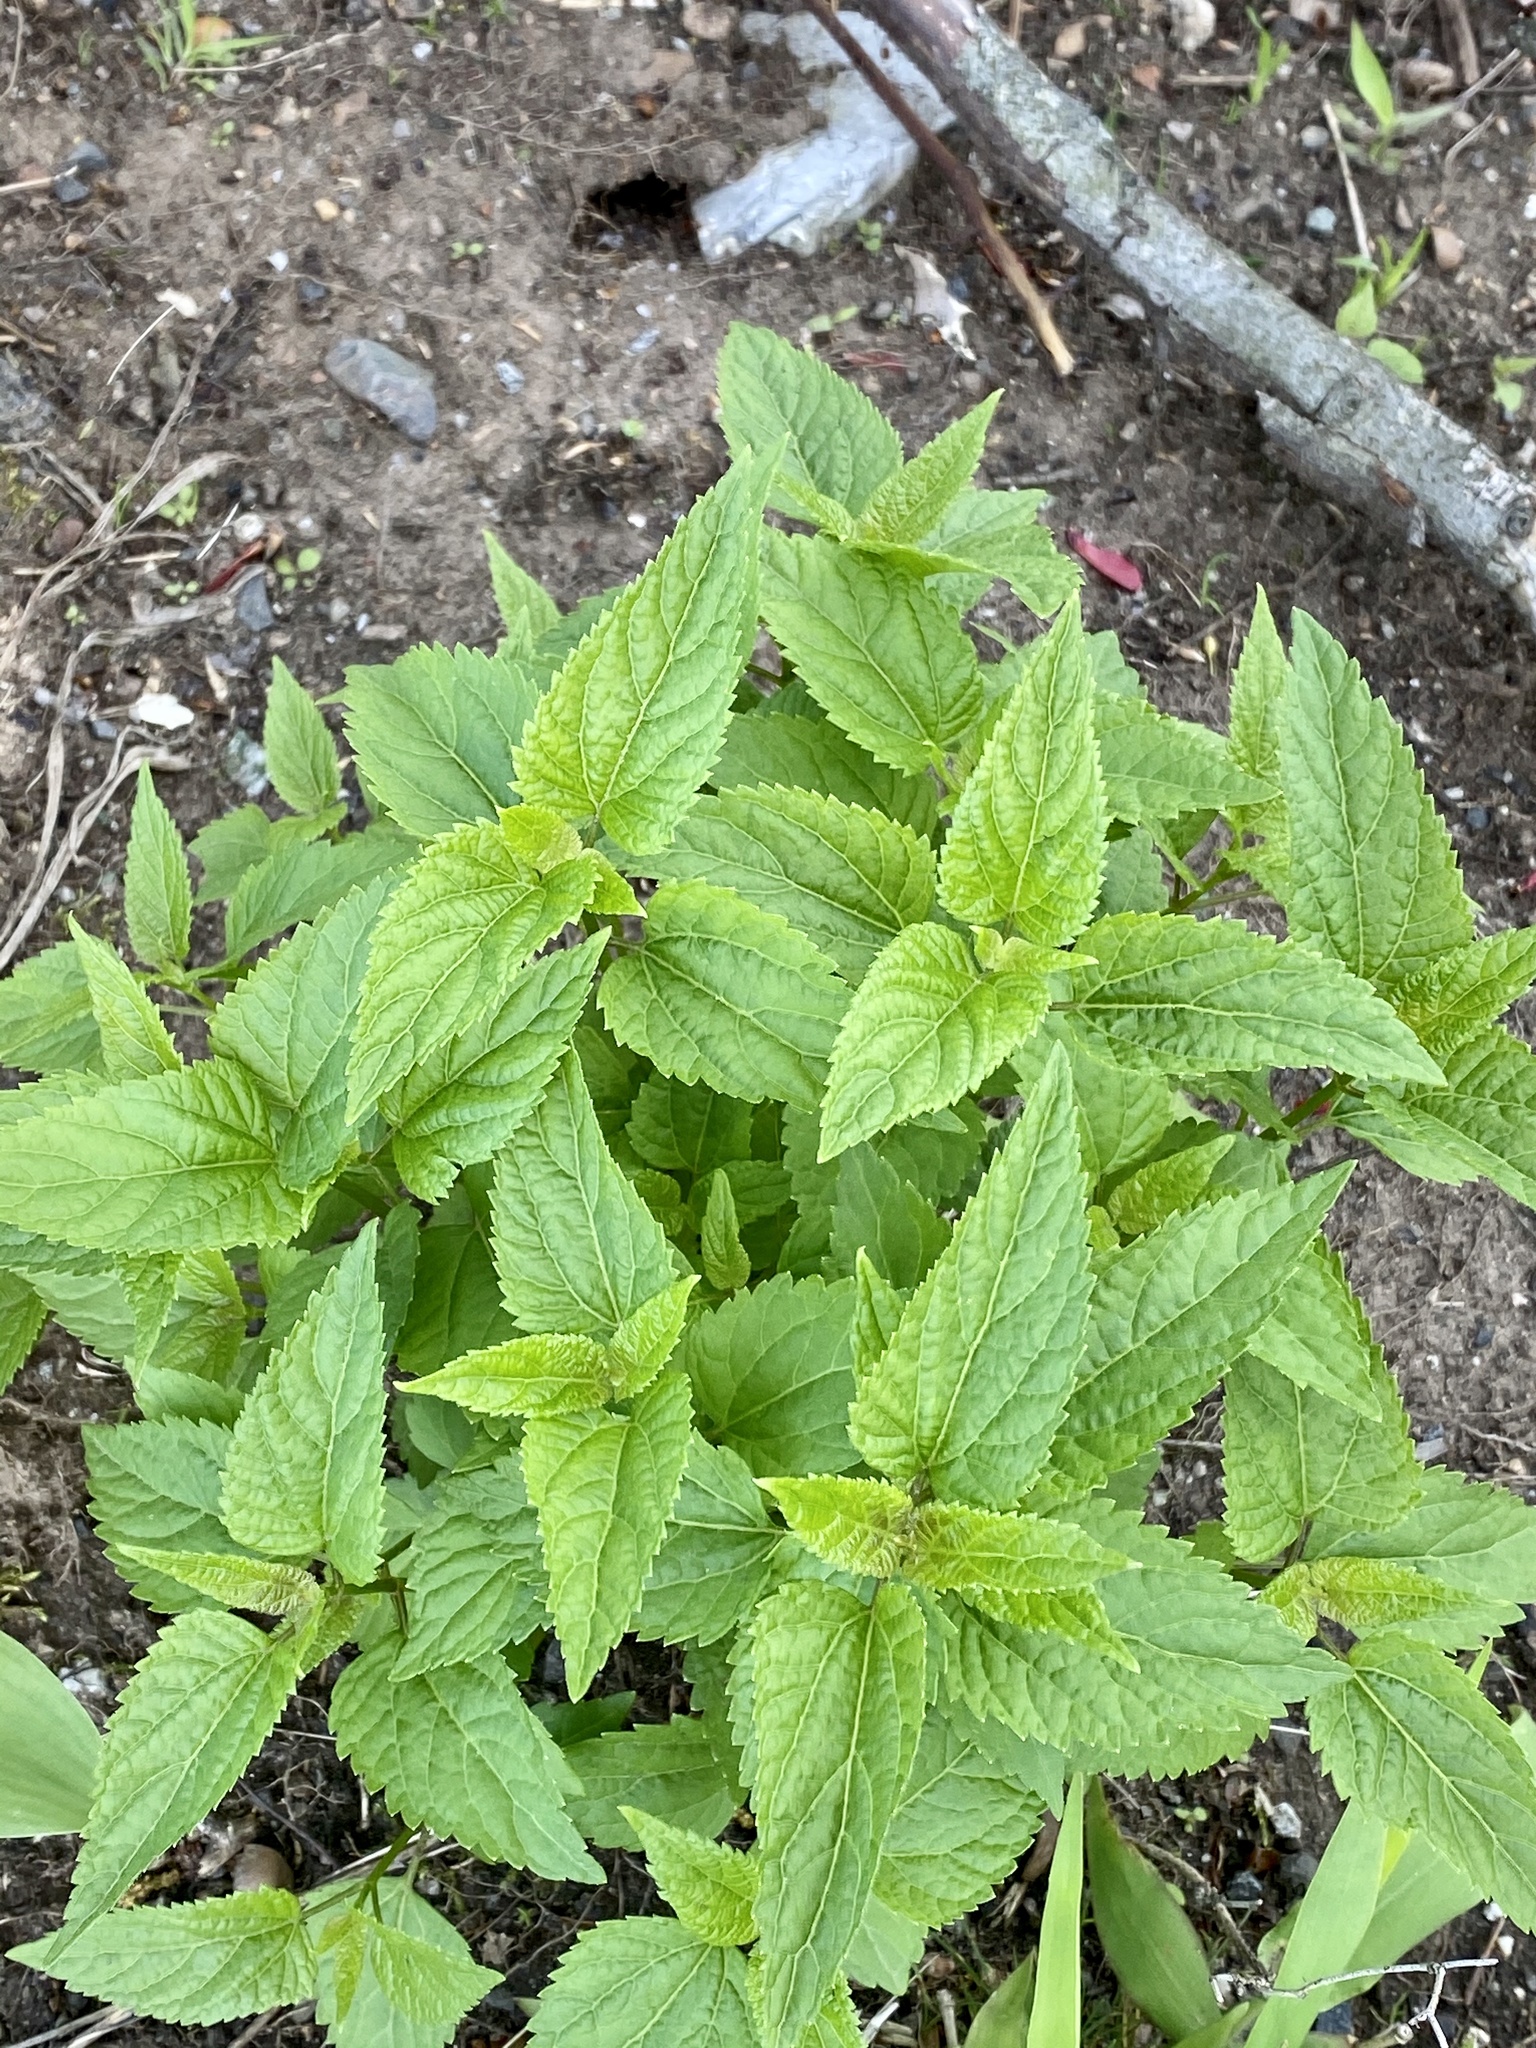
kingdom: Plantae
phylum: Tracheophyta
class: Magnoliopsida
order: Asterales
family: Asteraceae
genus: Ageratina
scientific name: Ageratina altissima
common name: White snakeroot
